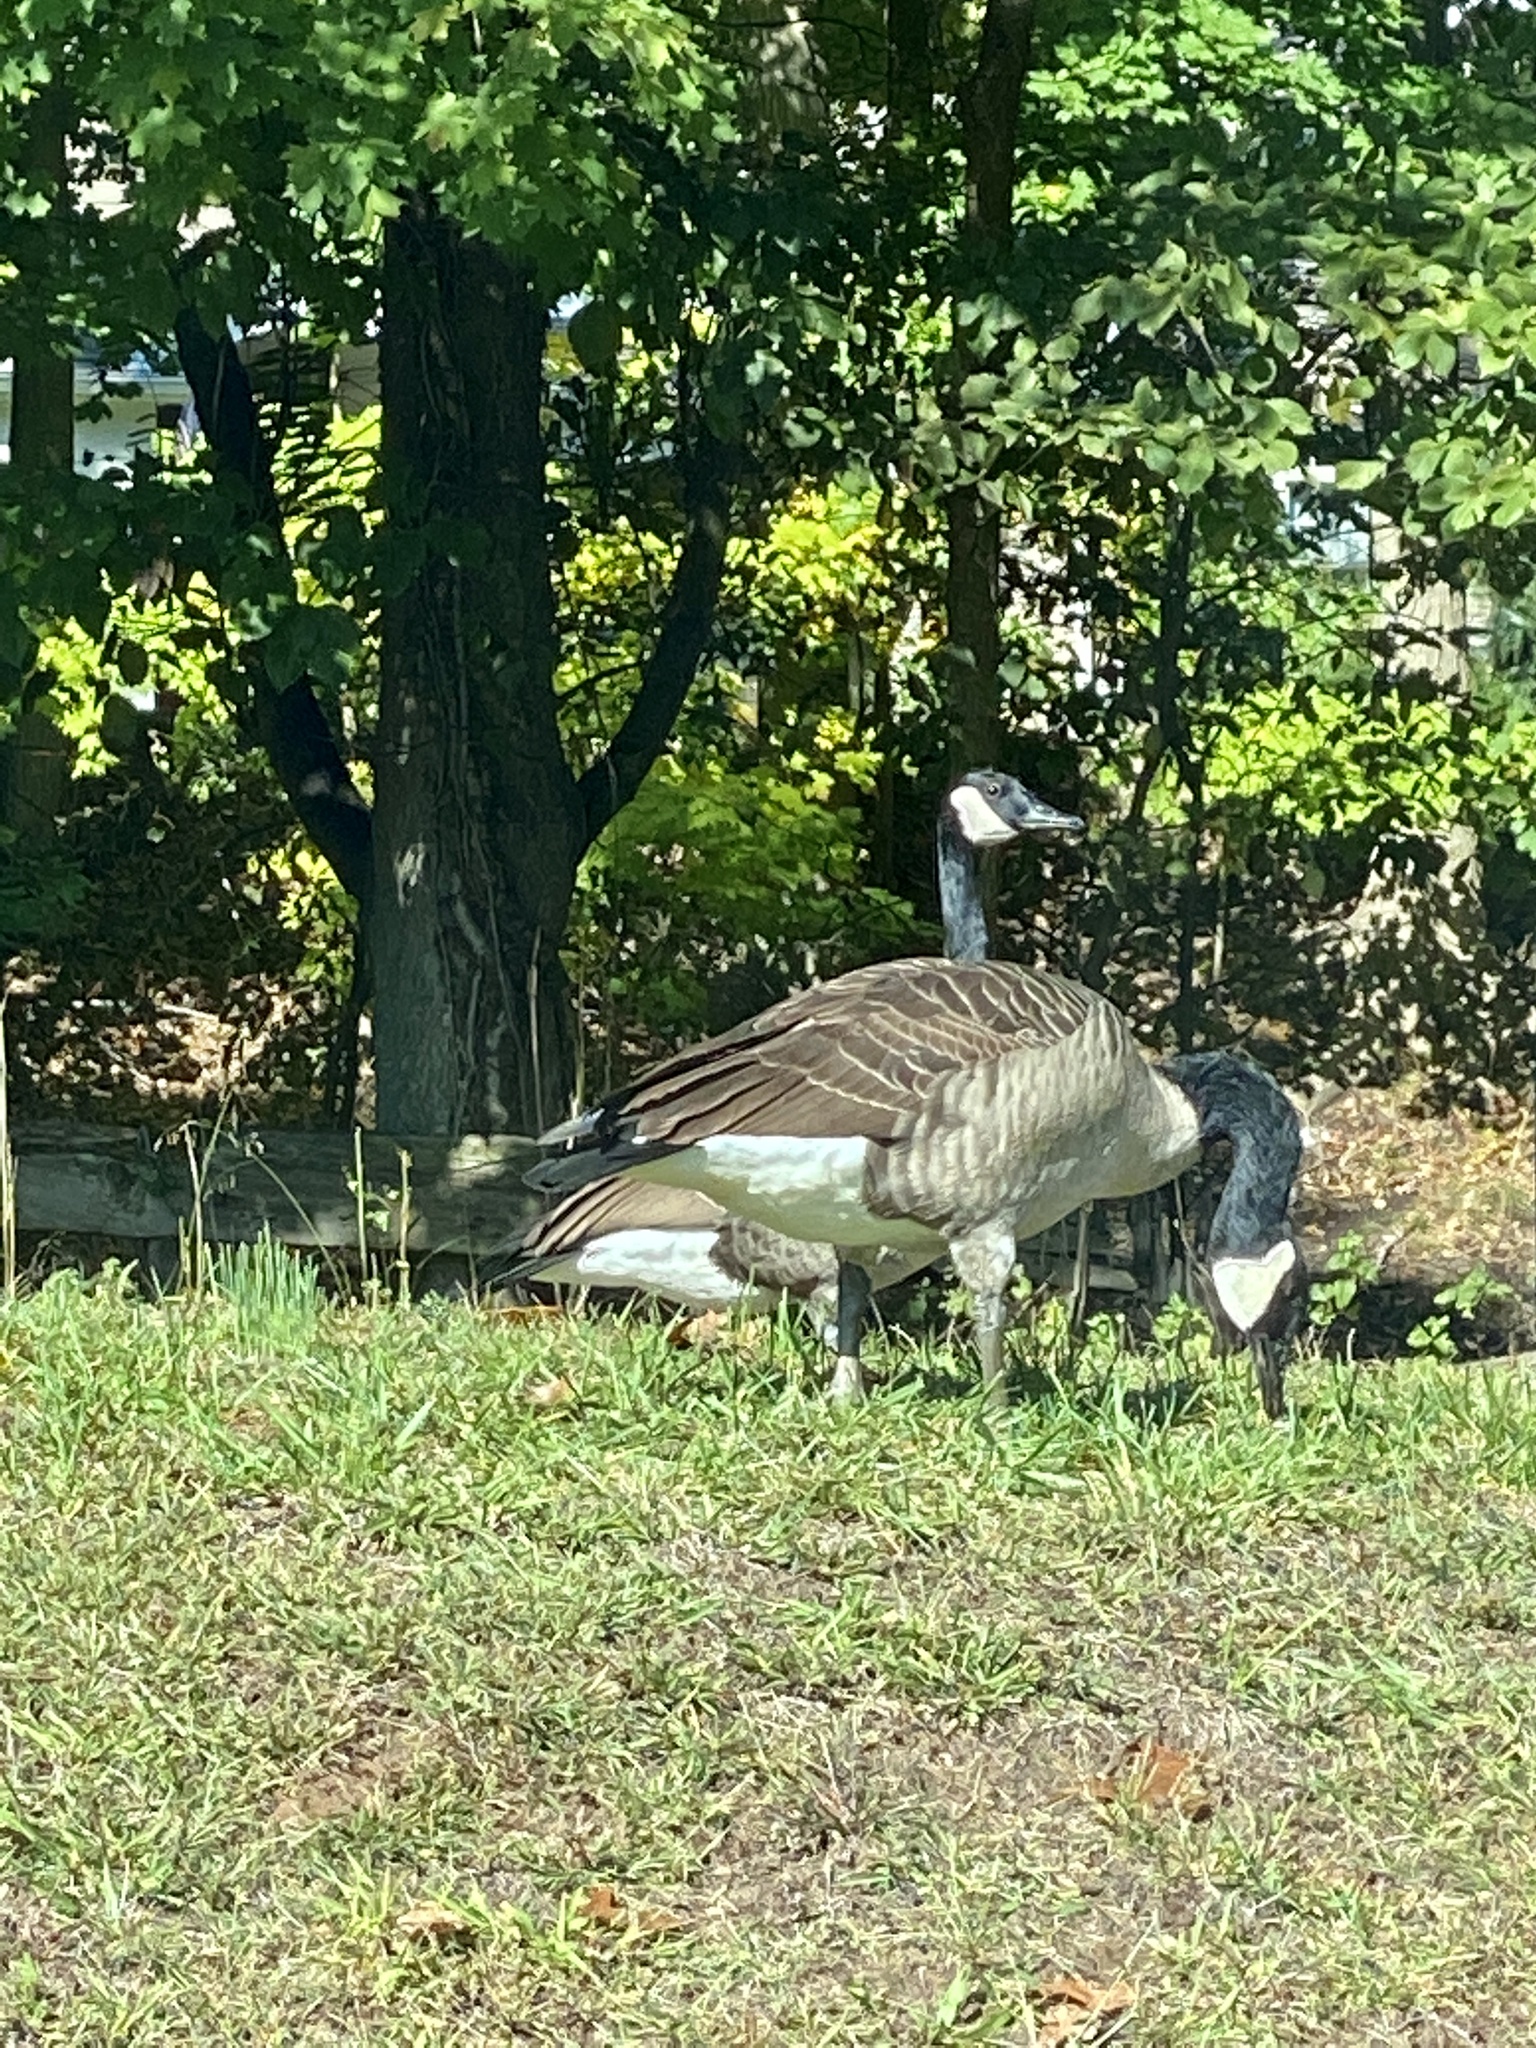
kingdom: Animalia
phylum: Chordata
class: Aves
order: Anseriformes
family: Anatidae
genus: Branta
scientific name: Branta canadensis
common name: Canada goose
